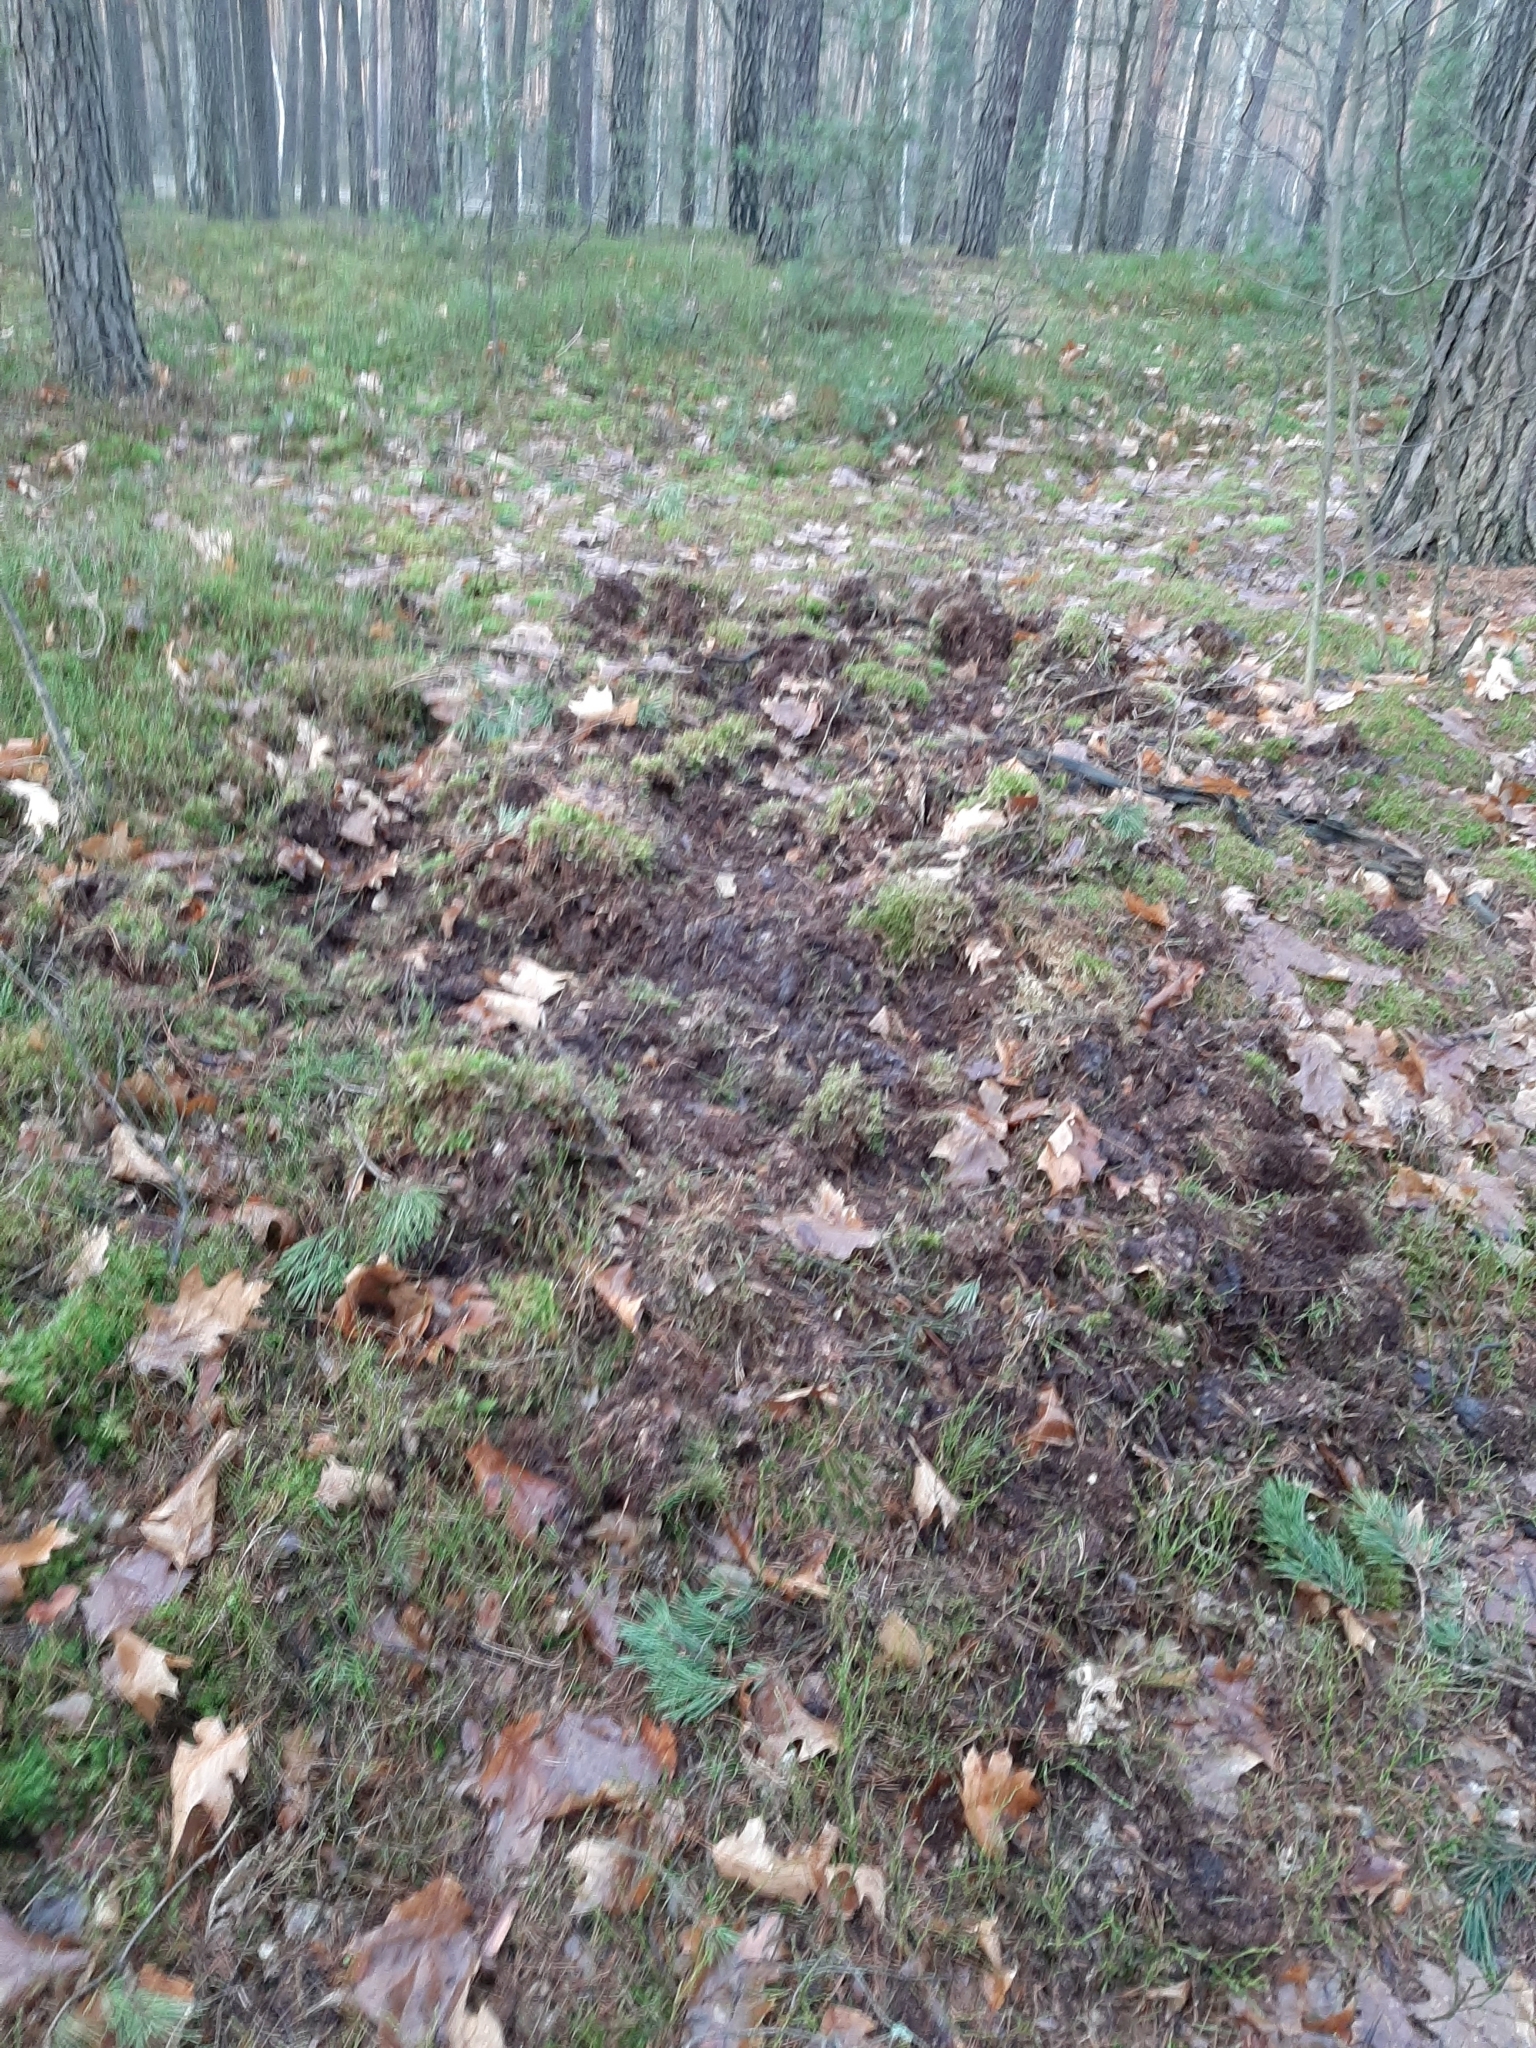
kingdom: Animalia
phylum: Chordata
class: Mammalia
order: Artiodactyla
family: Suidae
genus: Sus
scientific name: Sus scrofa
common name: Wild boar
